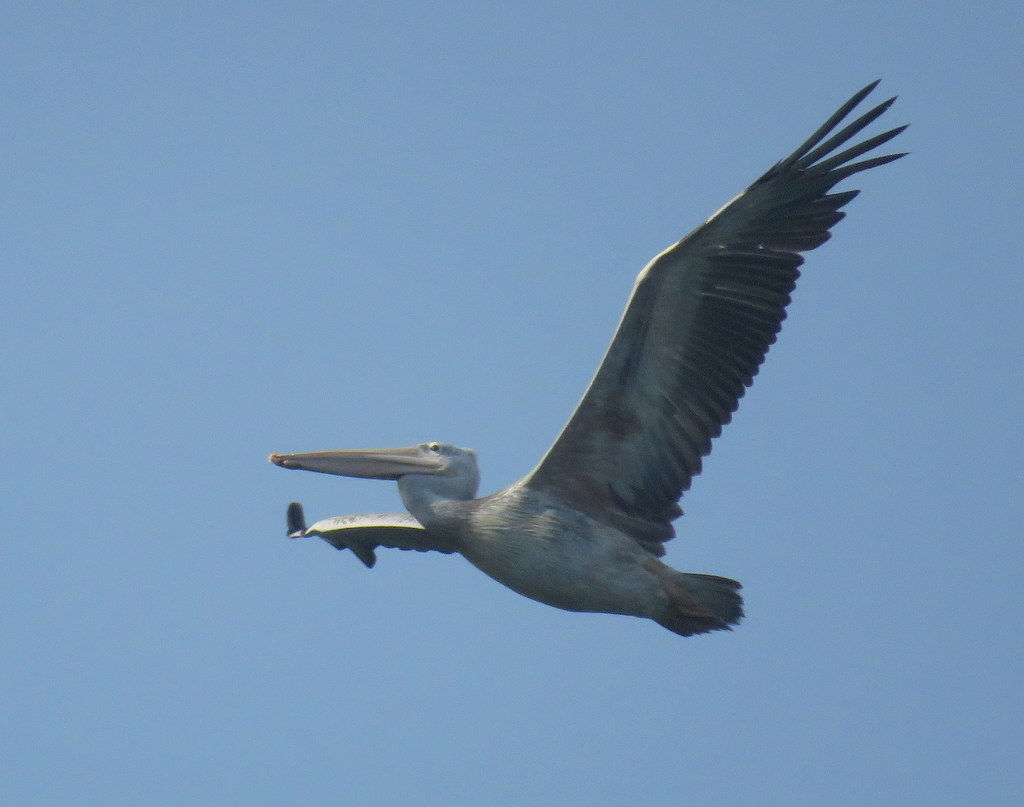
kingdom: Animalia
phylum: Chordata
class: Aves
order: Pelecaniformes
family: Pelecanidae
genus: Pelecanus
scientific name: Pelecanus rufescens
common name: Pink-backed pelican
